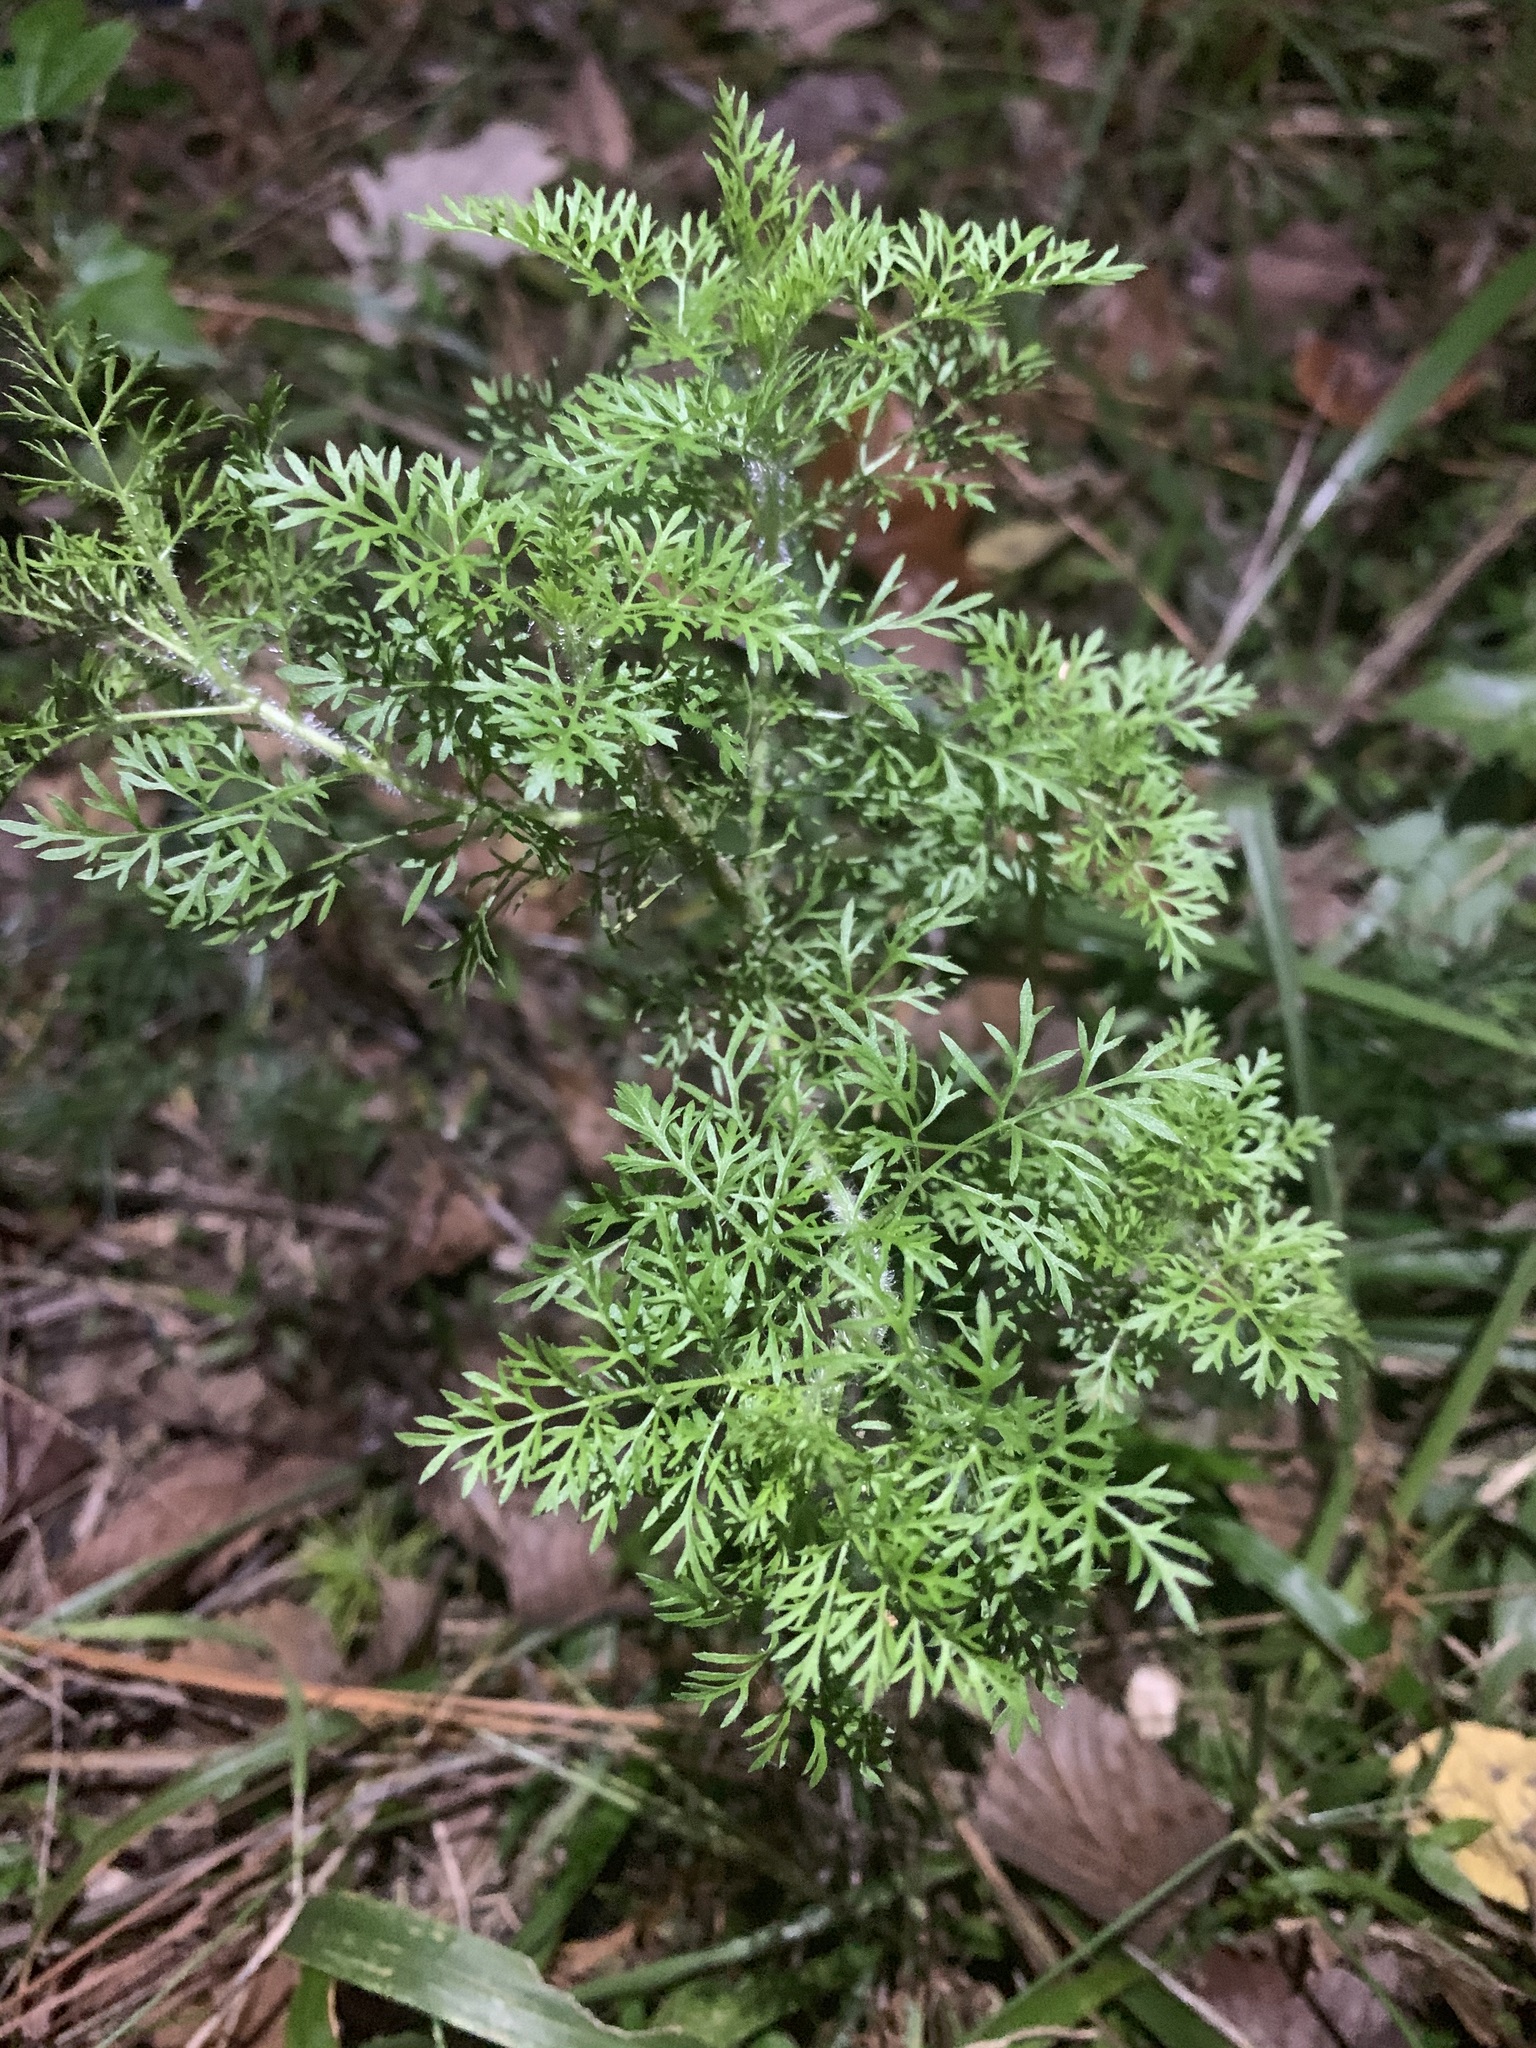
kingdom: Plantae
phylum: Tracheophyta
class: Magnoliopsida
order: Asterales
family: Asteraceae
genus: Eupatorium
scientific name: Eupatorium capillifolium
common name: Dog-fennel
